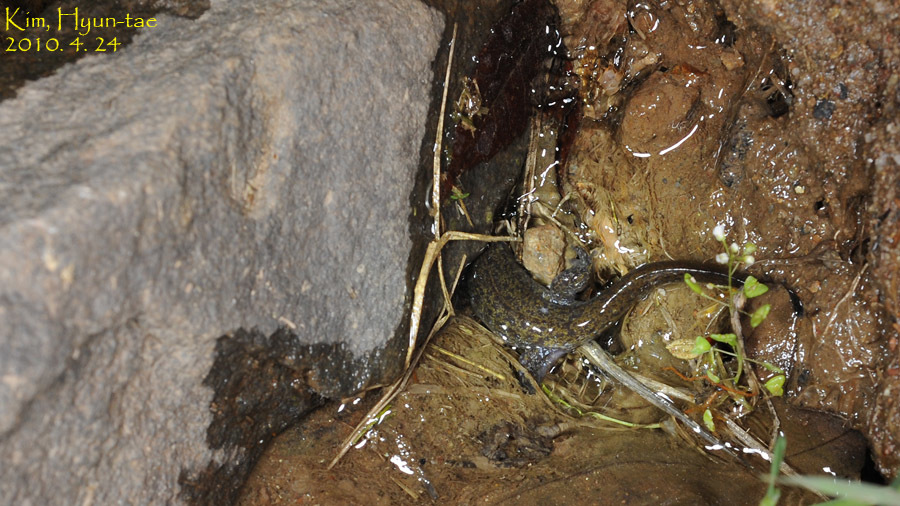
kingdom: Animalia
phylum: Chordata
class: Amphibia
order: Caudata
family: Hynobiidae
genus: Hynobius
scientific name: Hynobius leechii
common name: Gensan salamander
